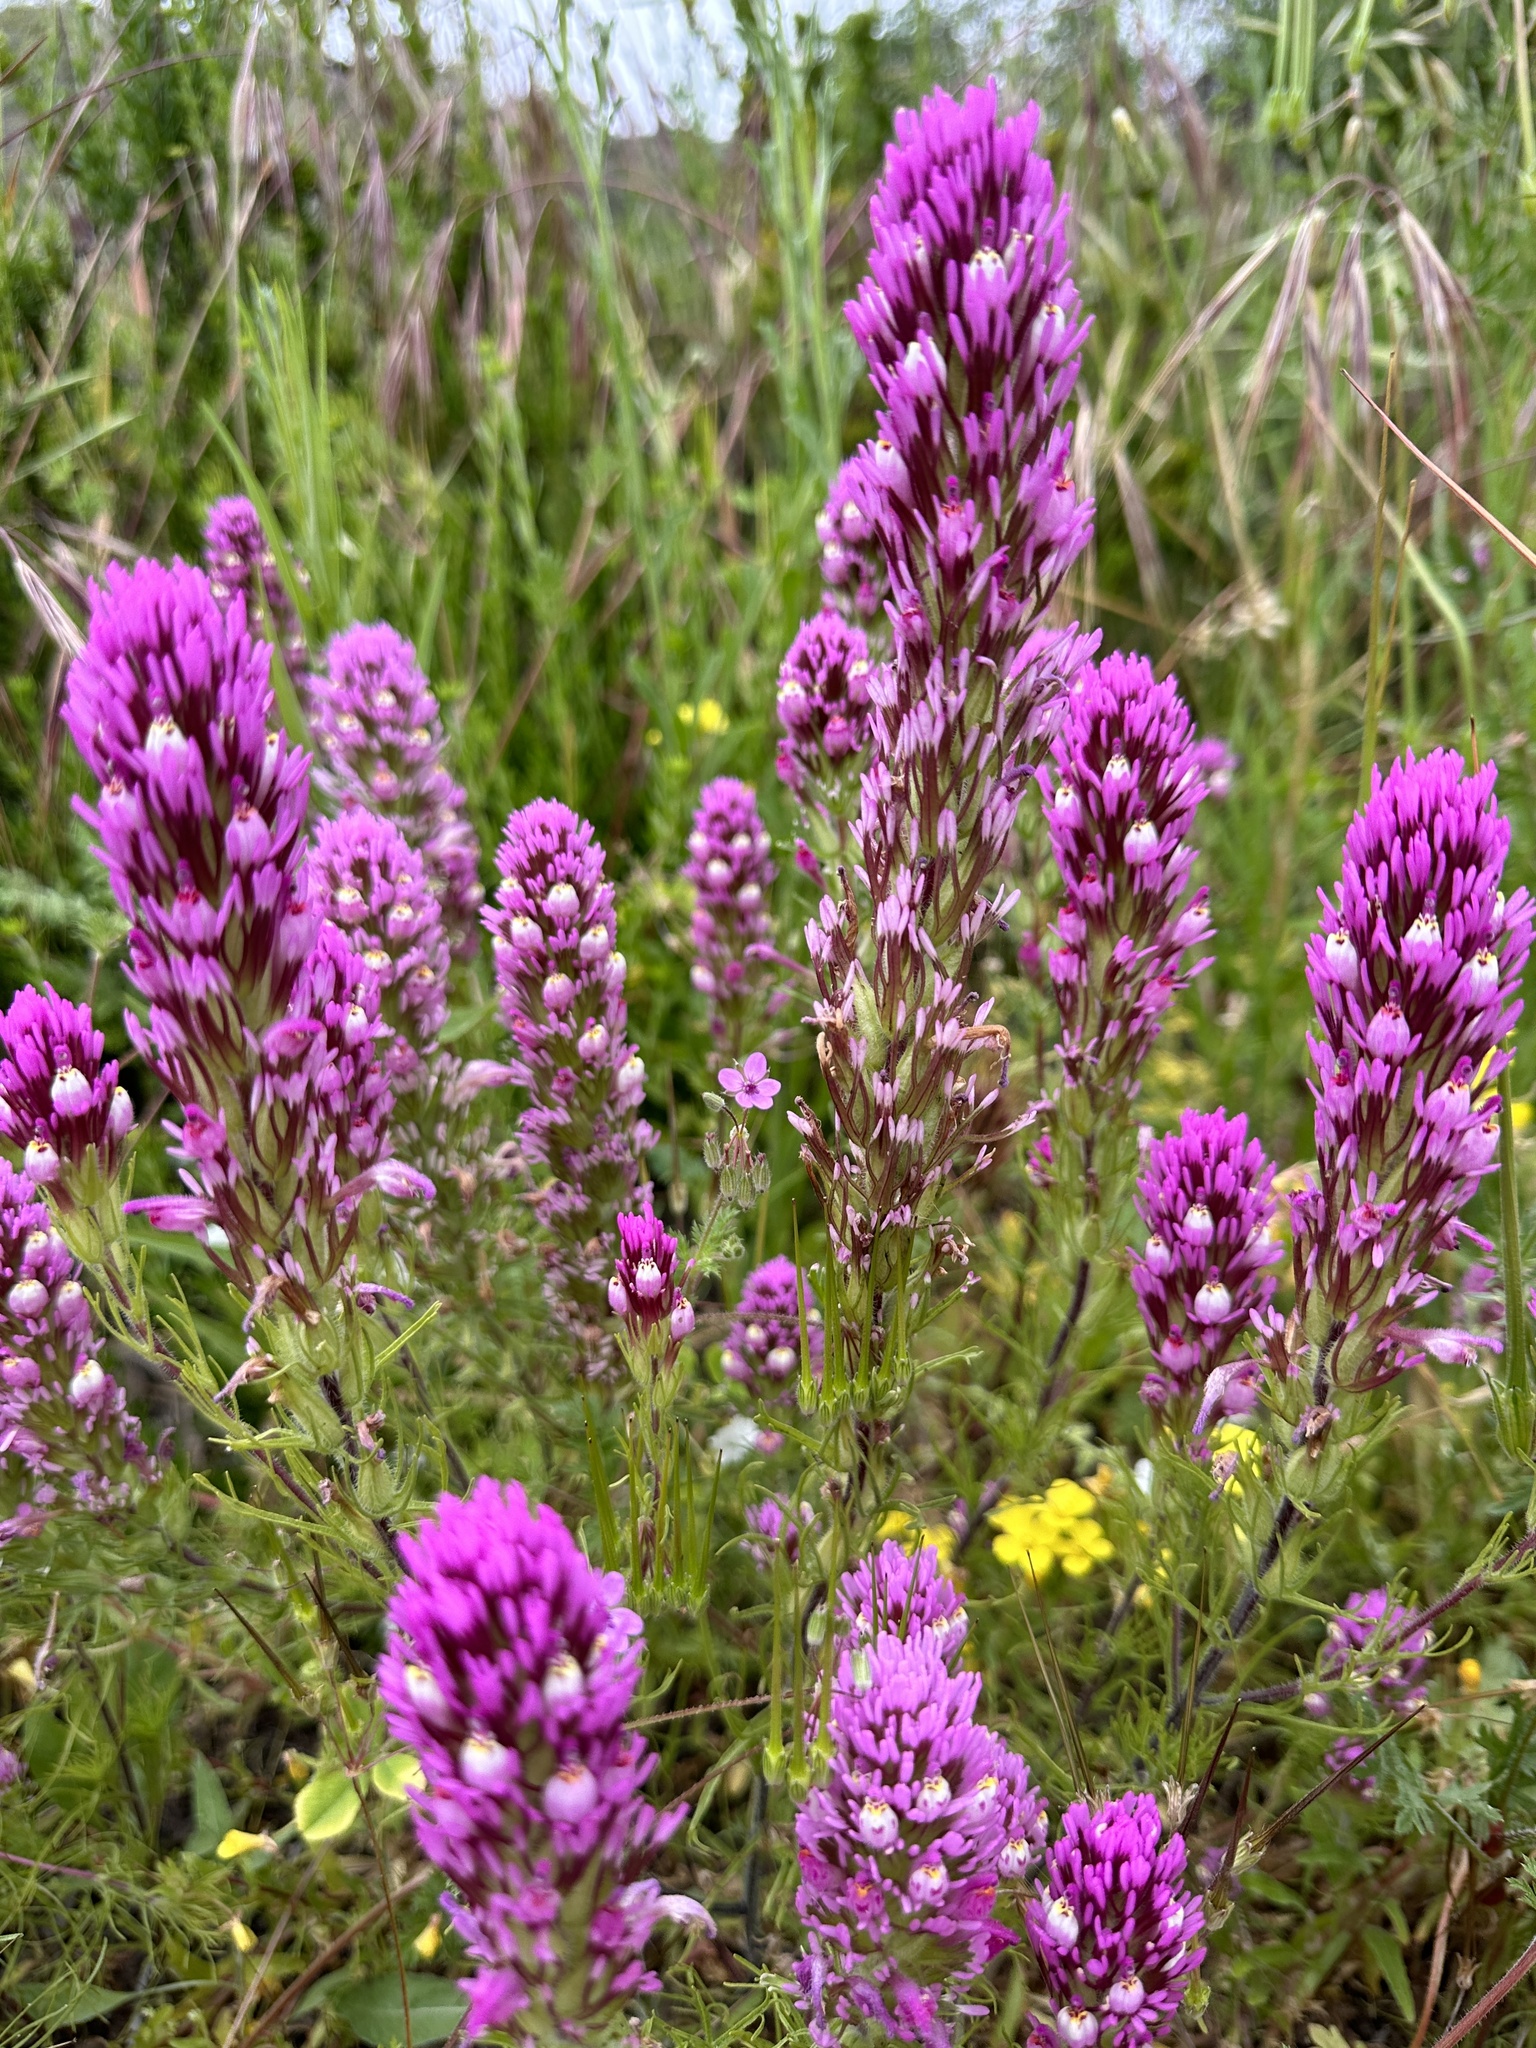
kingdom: Plantae
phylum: Tracheophyta
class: Magnoliopsida
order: Lamiales
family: Orobanchaceae
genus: Castilleja
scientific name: Castilleja exserta
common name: Purple owl-clover
